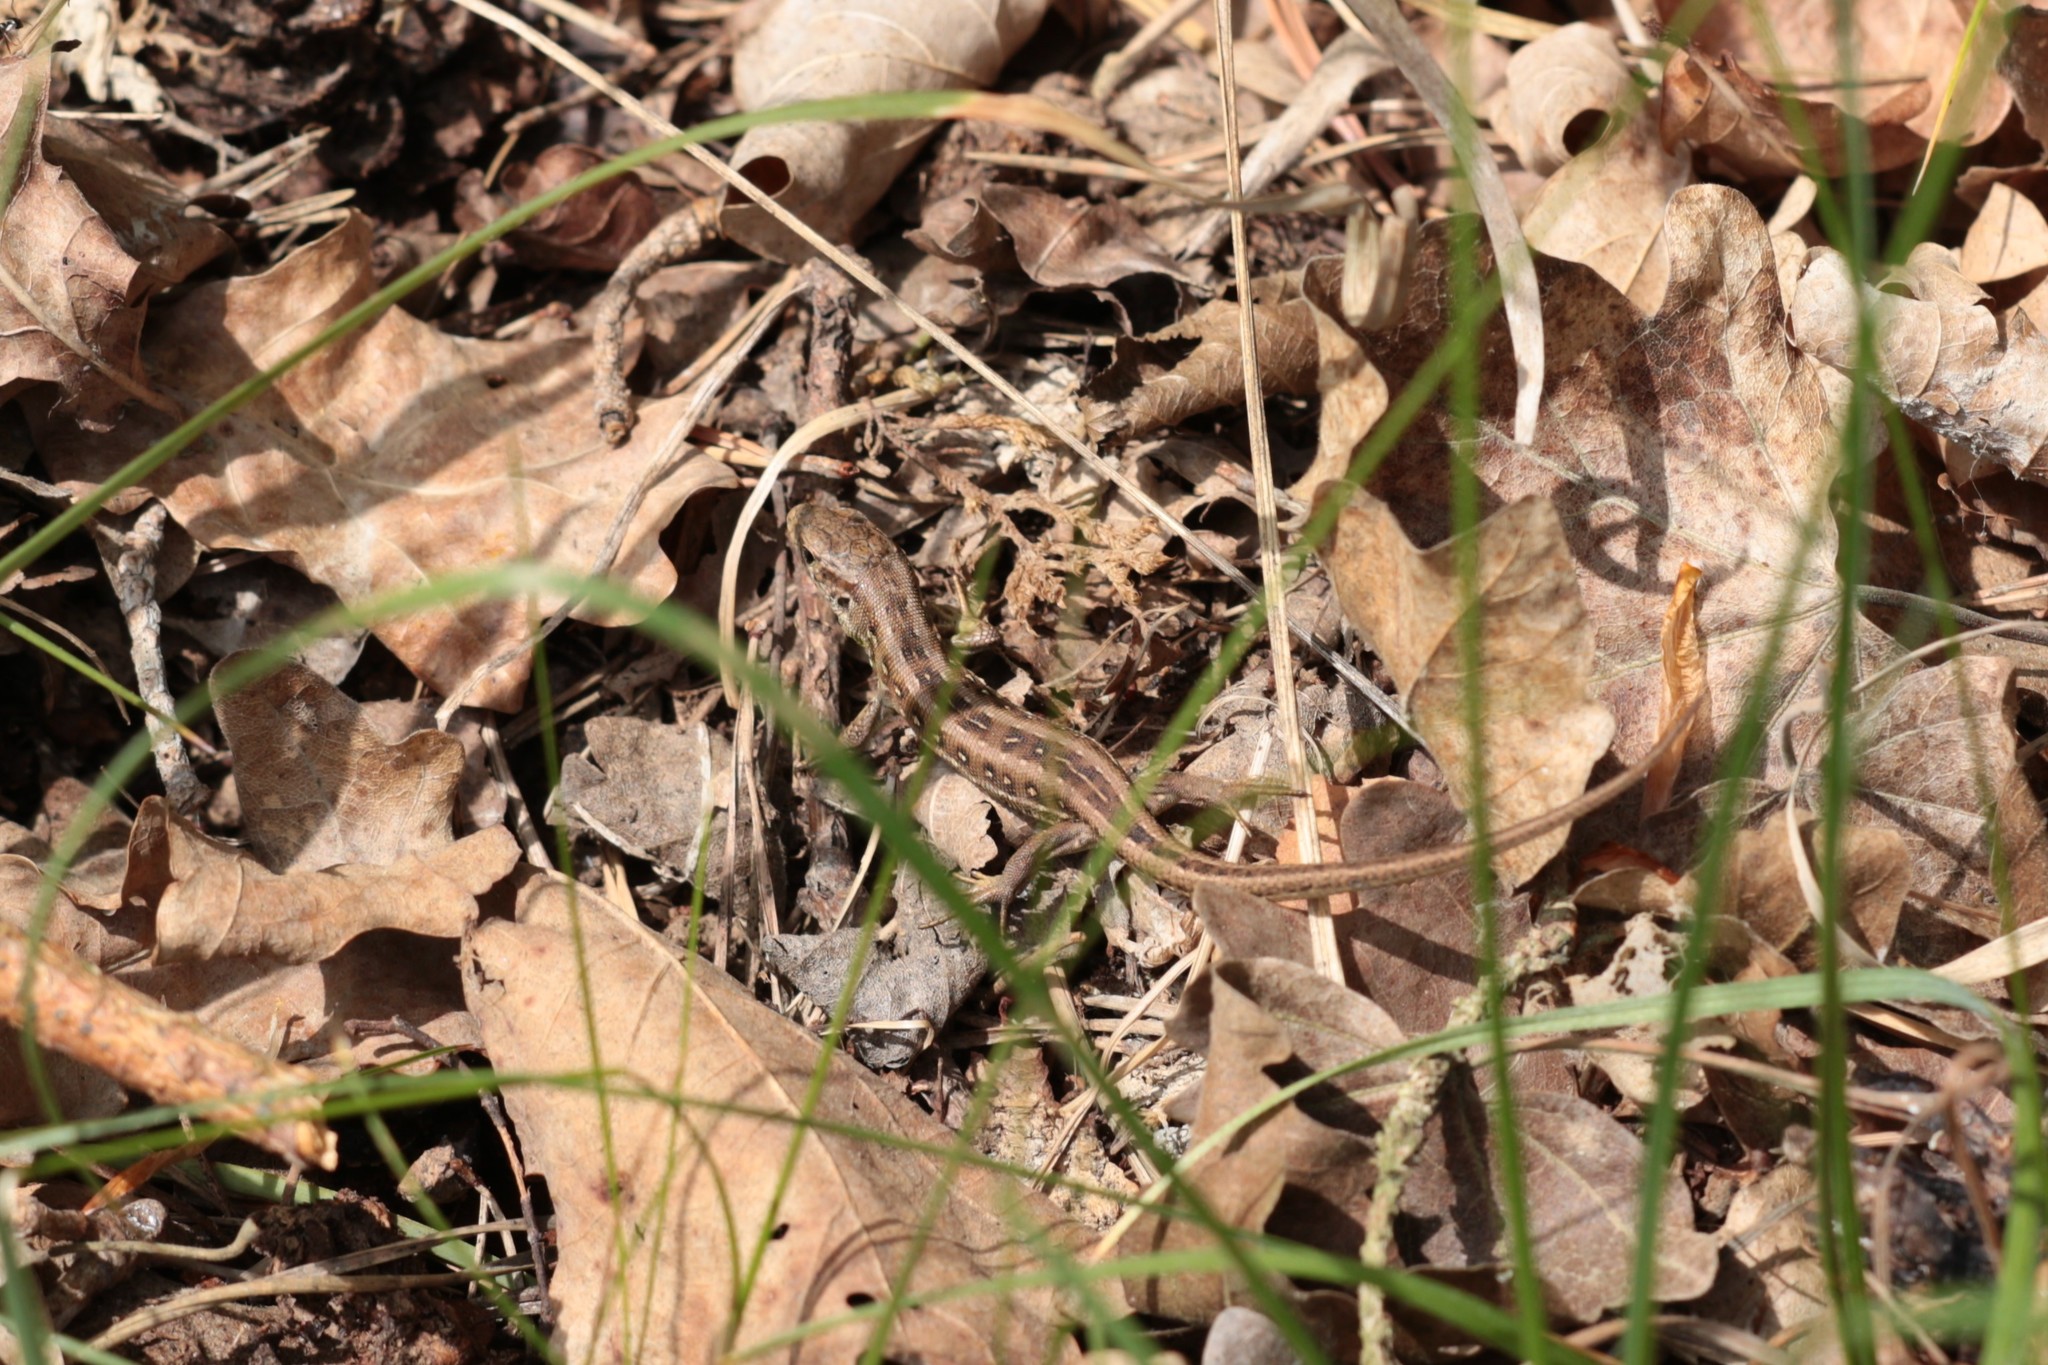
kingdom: Animalia
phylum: Chordata
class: Squamata
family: Lacertidae
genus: Lacerta
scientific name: Lacerta agilis
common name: Sand lizard
